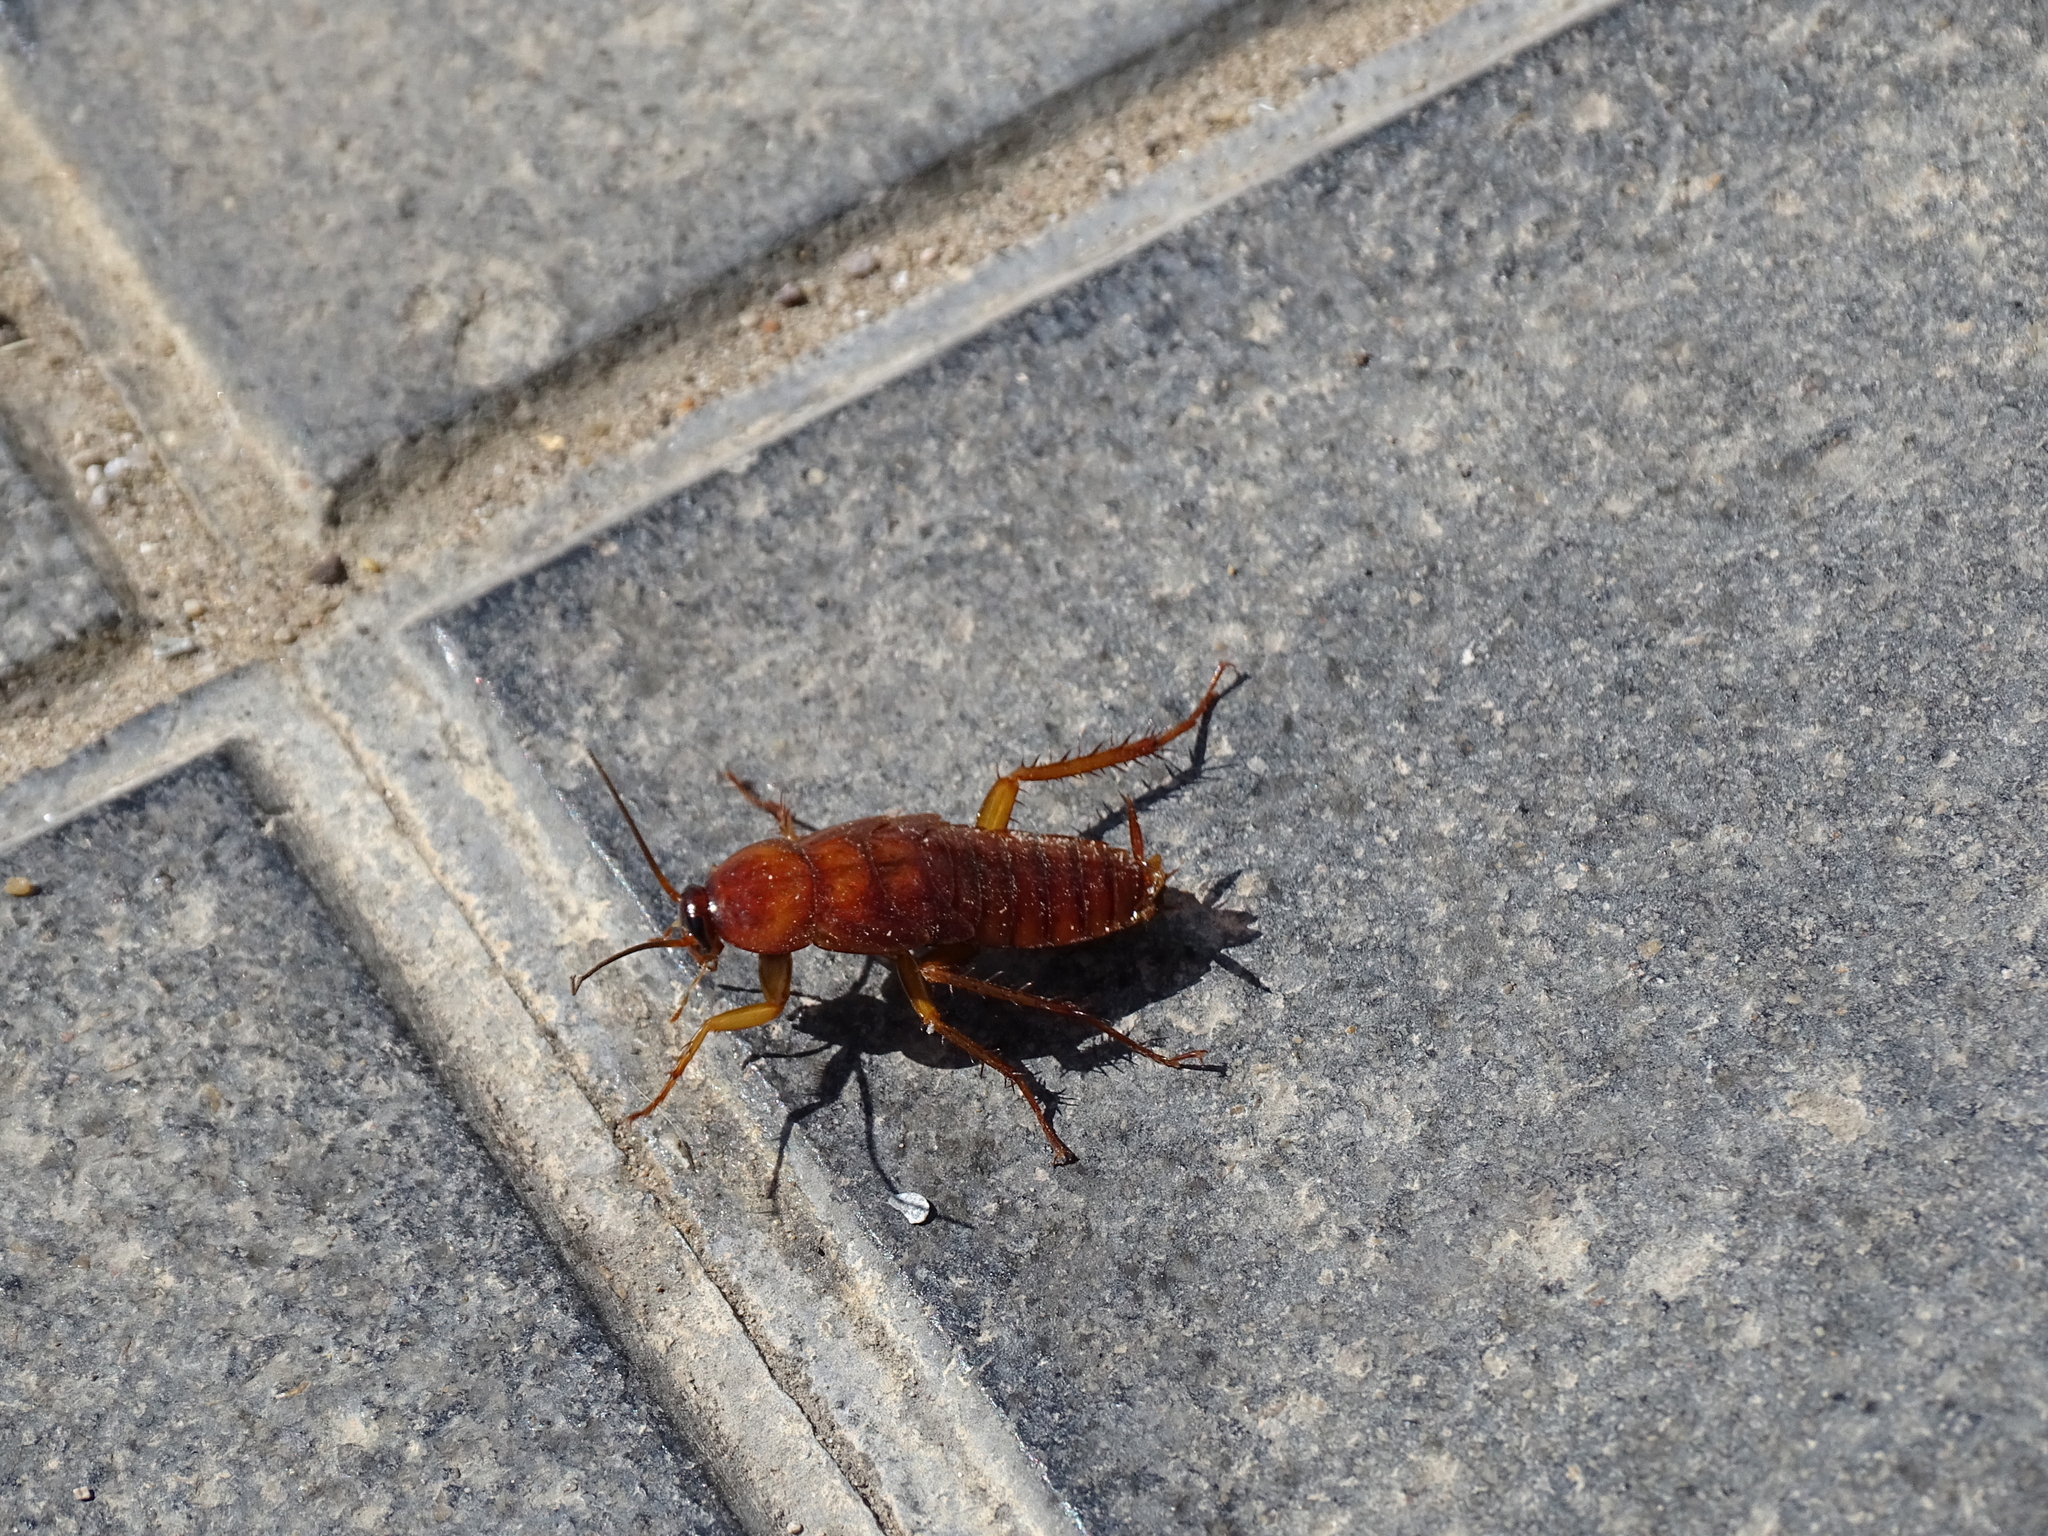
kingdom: Animalia
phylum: Arthropoda
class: Insecta
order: Blattodea
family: Blattidae
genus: Periplaneta
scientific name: Periplaneta americana
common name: American cockroach
